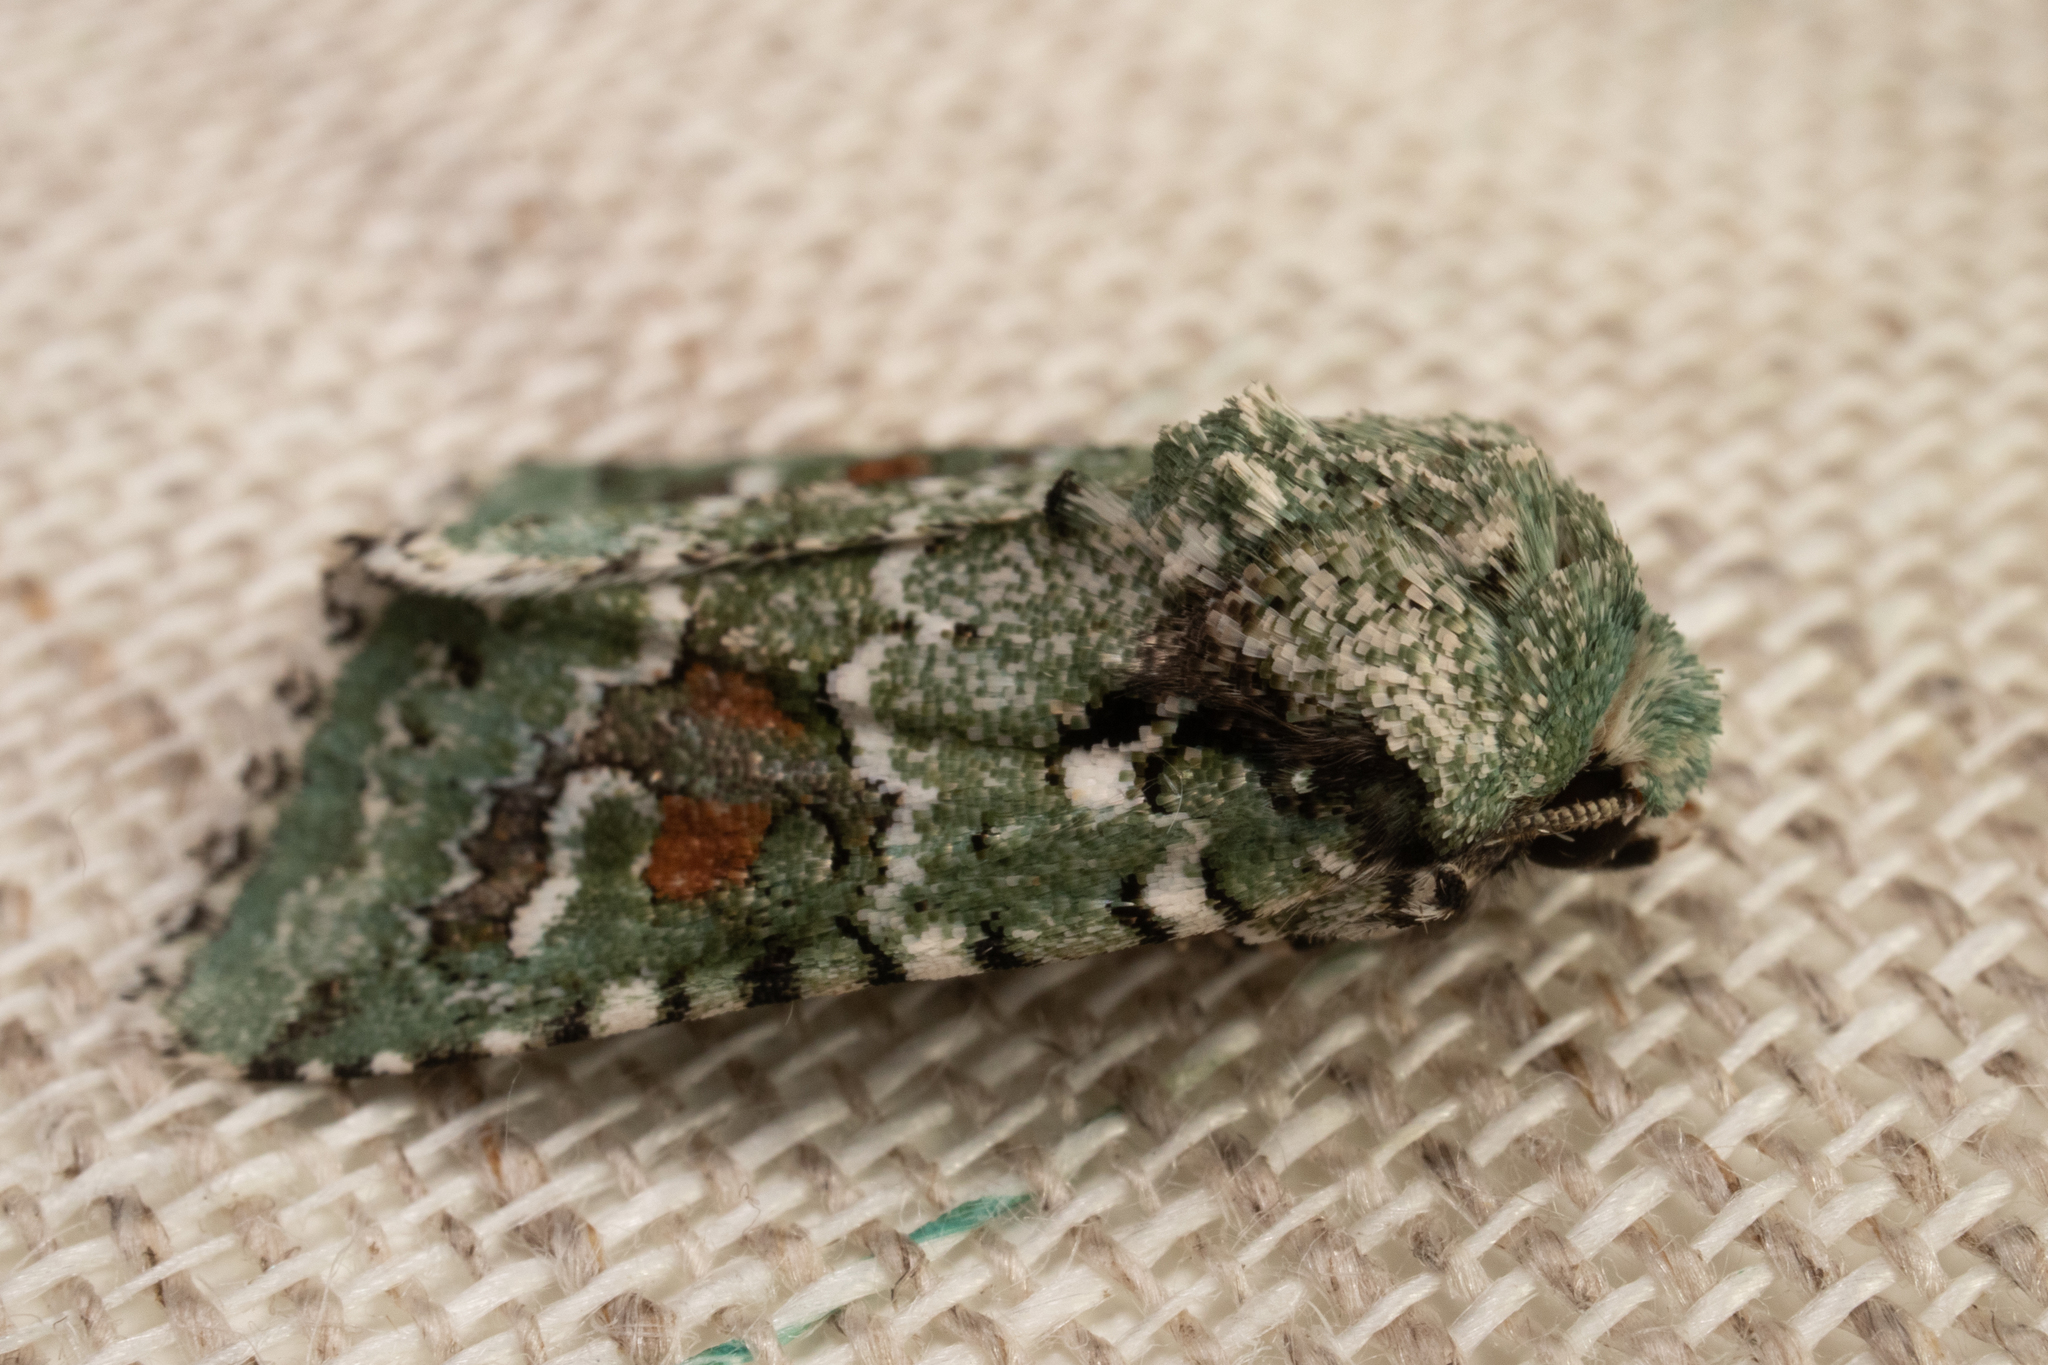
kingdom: Animalia
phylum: Arthropoda
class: Insecta
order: Lepidoptera
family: Noctuidae
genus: Lacinipolia
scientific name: Lacinipolia laudabilis
